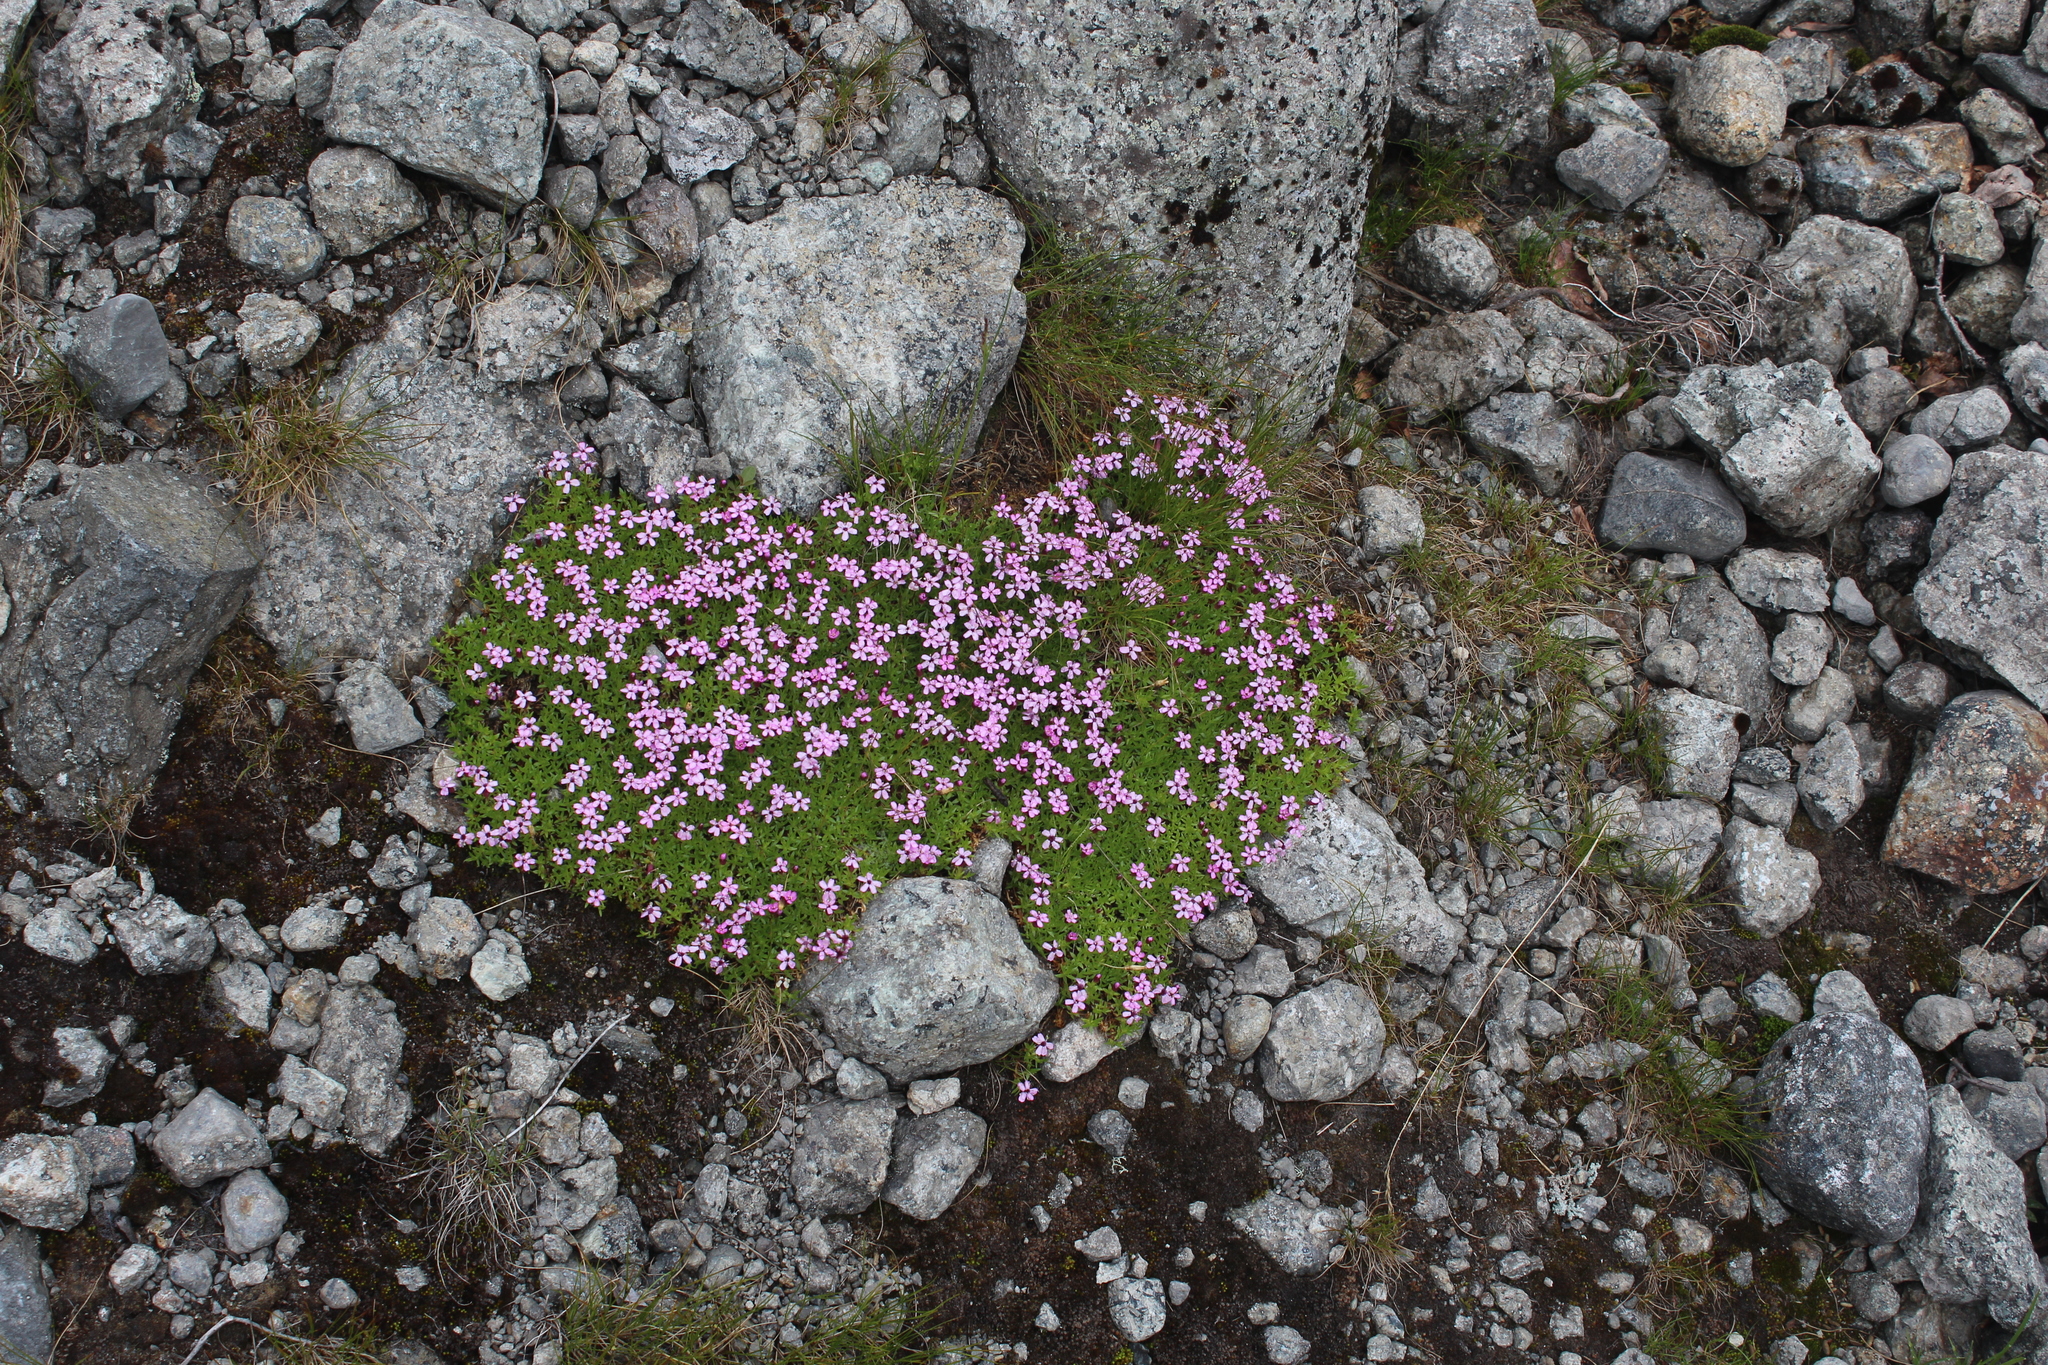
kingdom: Plantae
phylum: Tracheophyta
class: Magnoliopsida
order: Caryophyllales
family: Caryophyllaceae
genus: Silene
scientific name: Silene acaulis
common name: Moss campion
